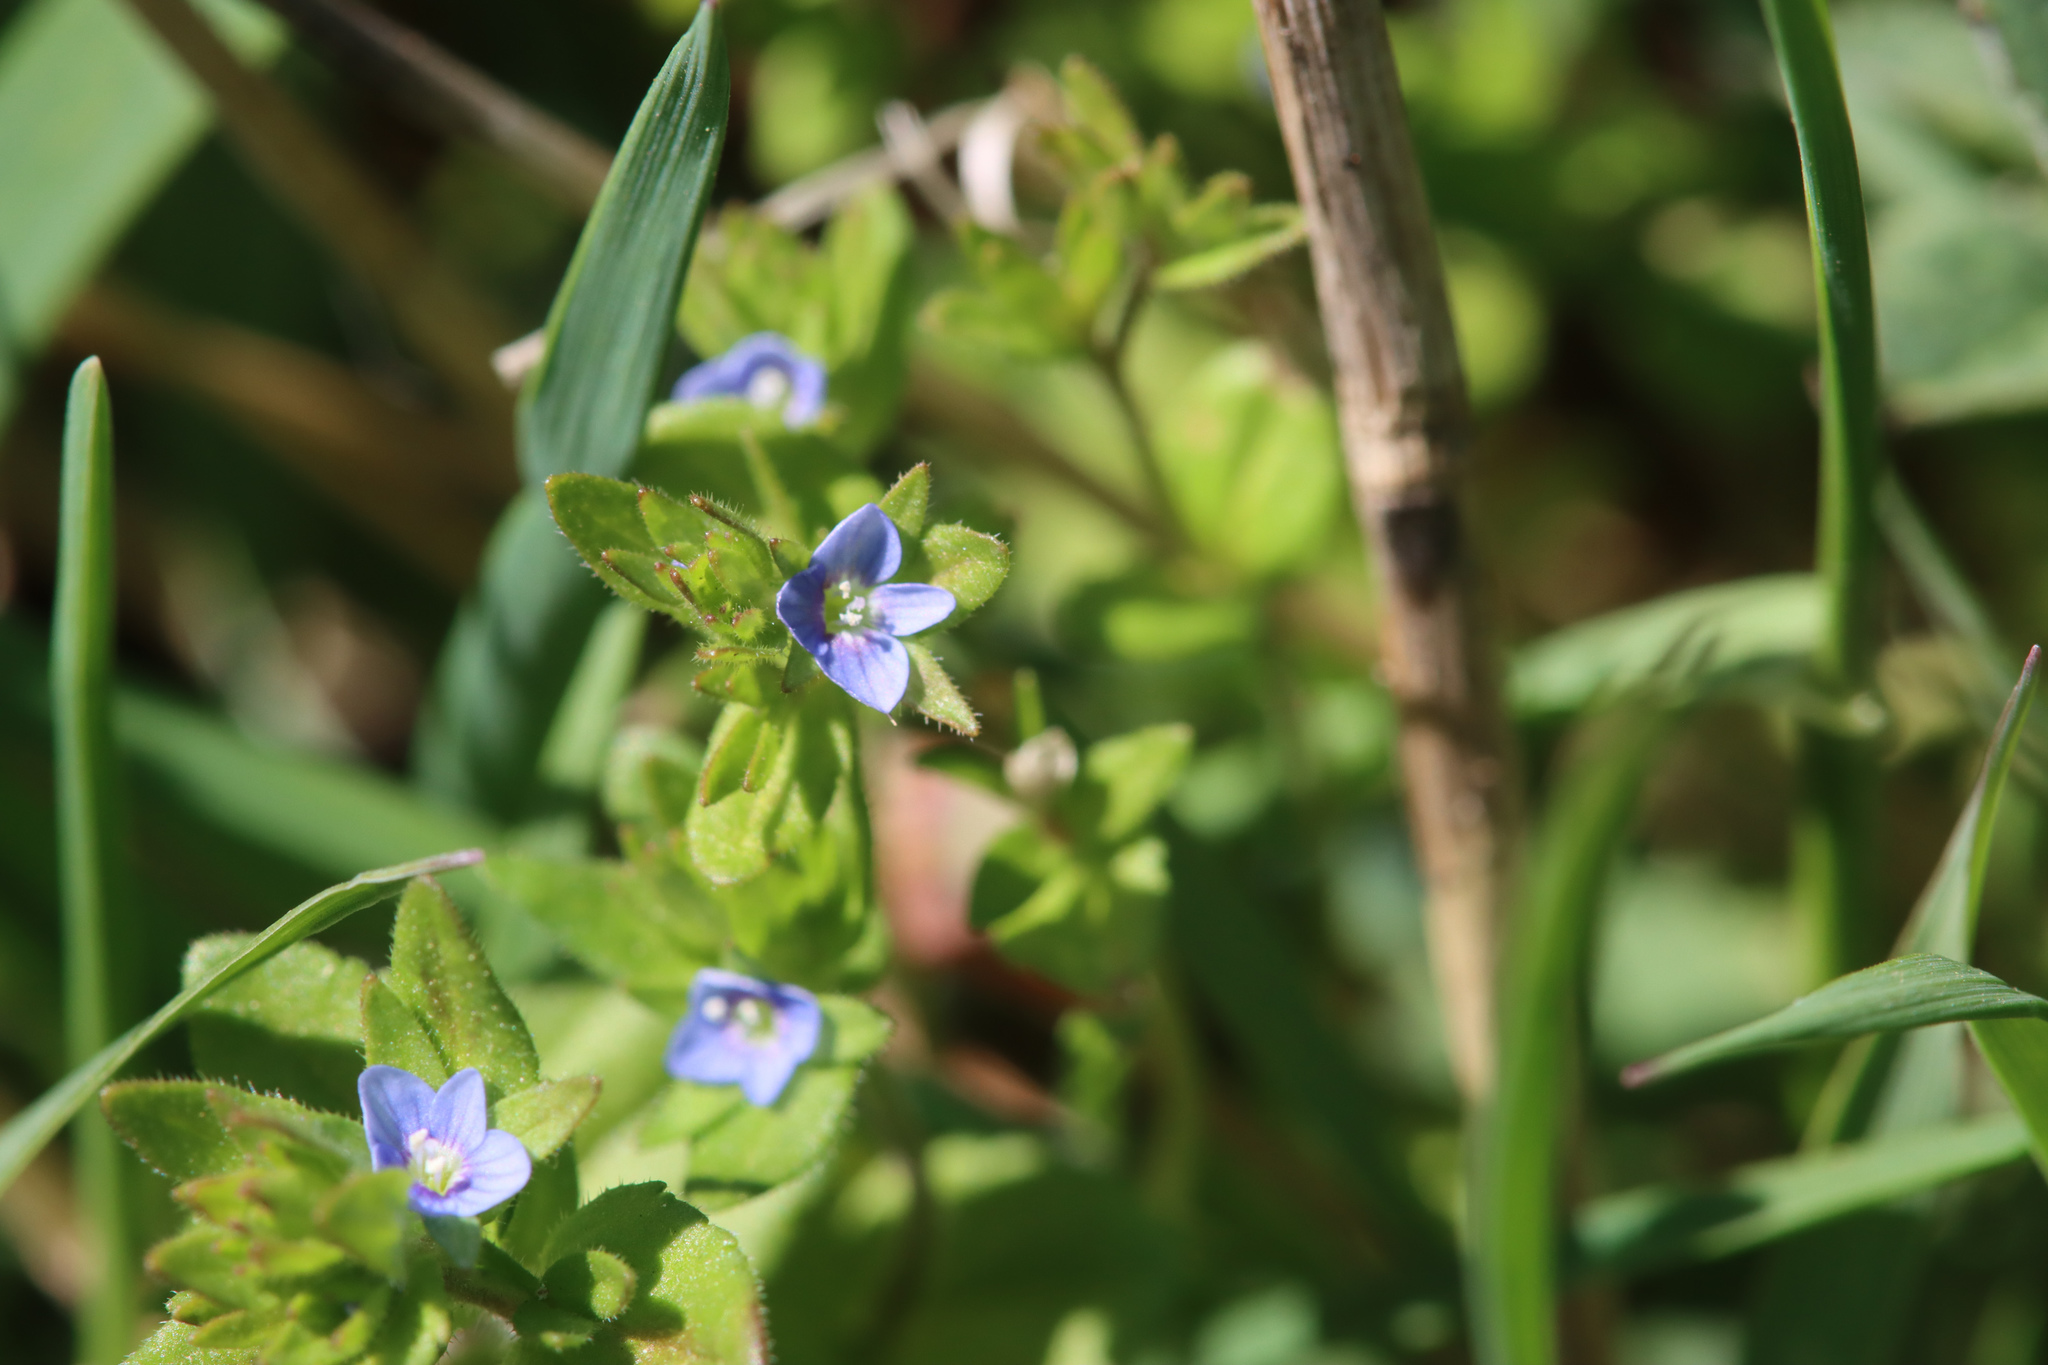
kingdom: Plantae
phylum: Tracheophyta
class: Magnoliopsida
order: Lamiales
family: Plantaginaceae
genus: Veronica
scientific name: Veronica arvensis
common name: Corn speedwell
